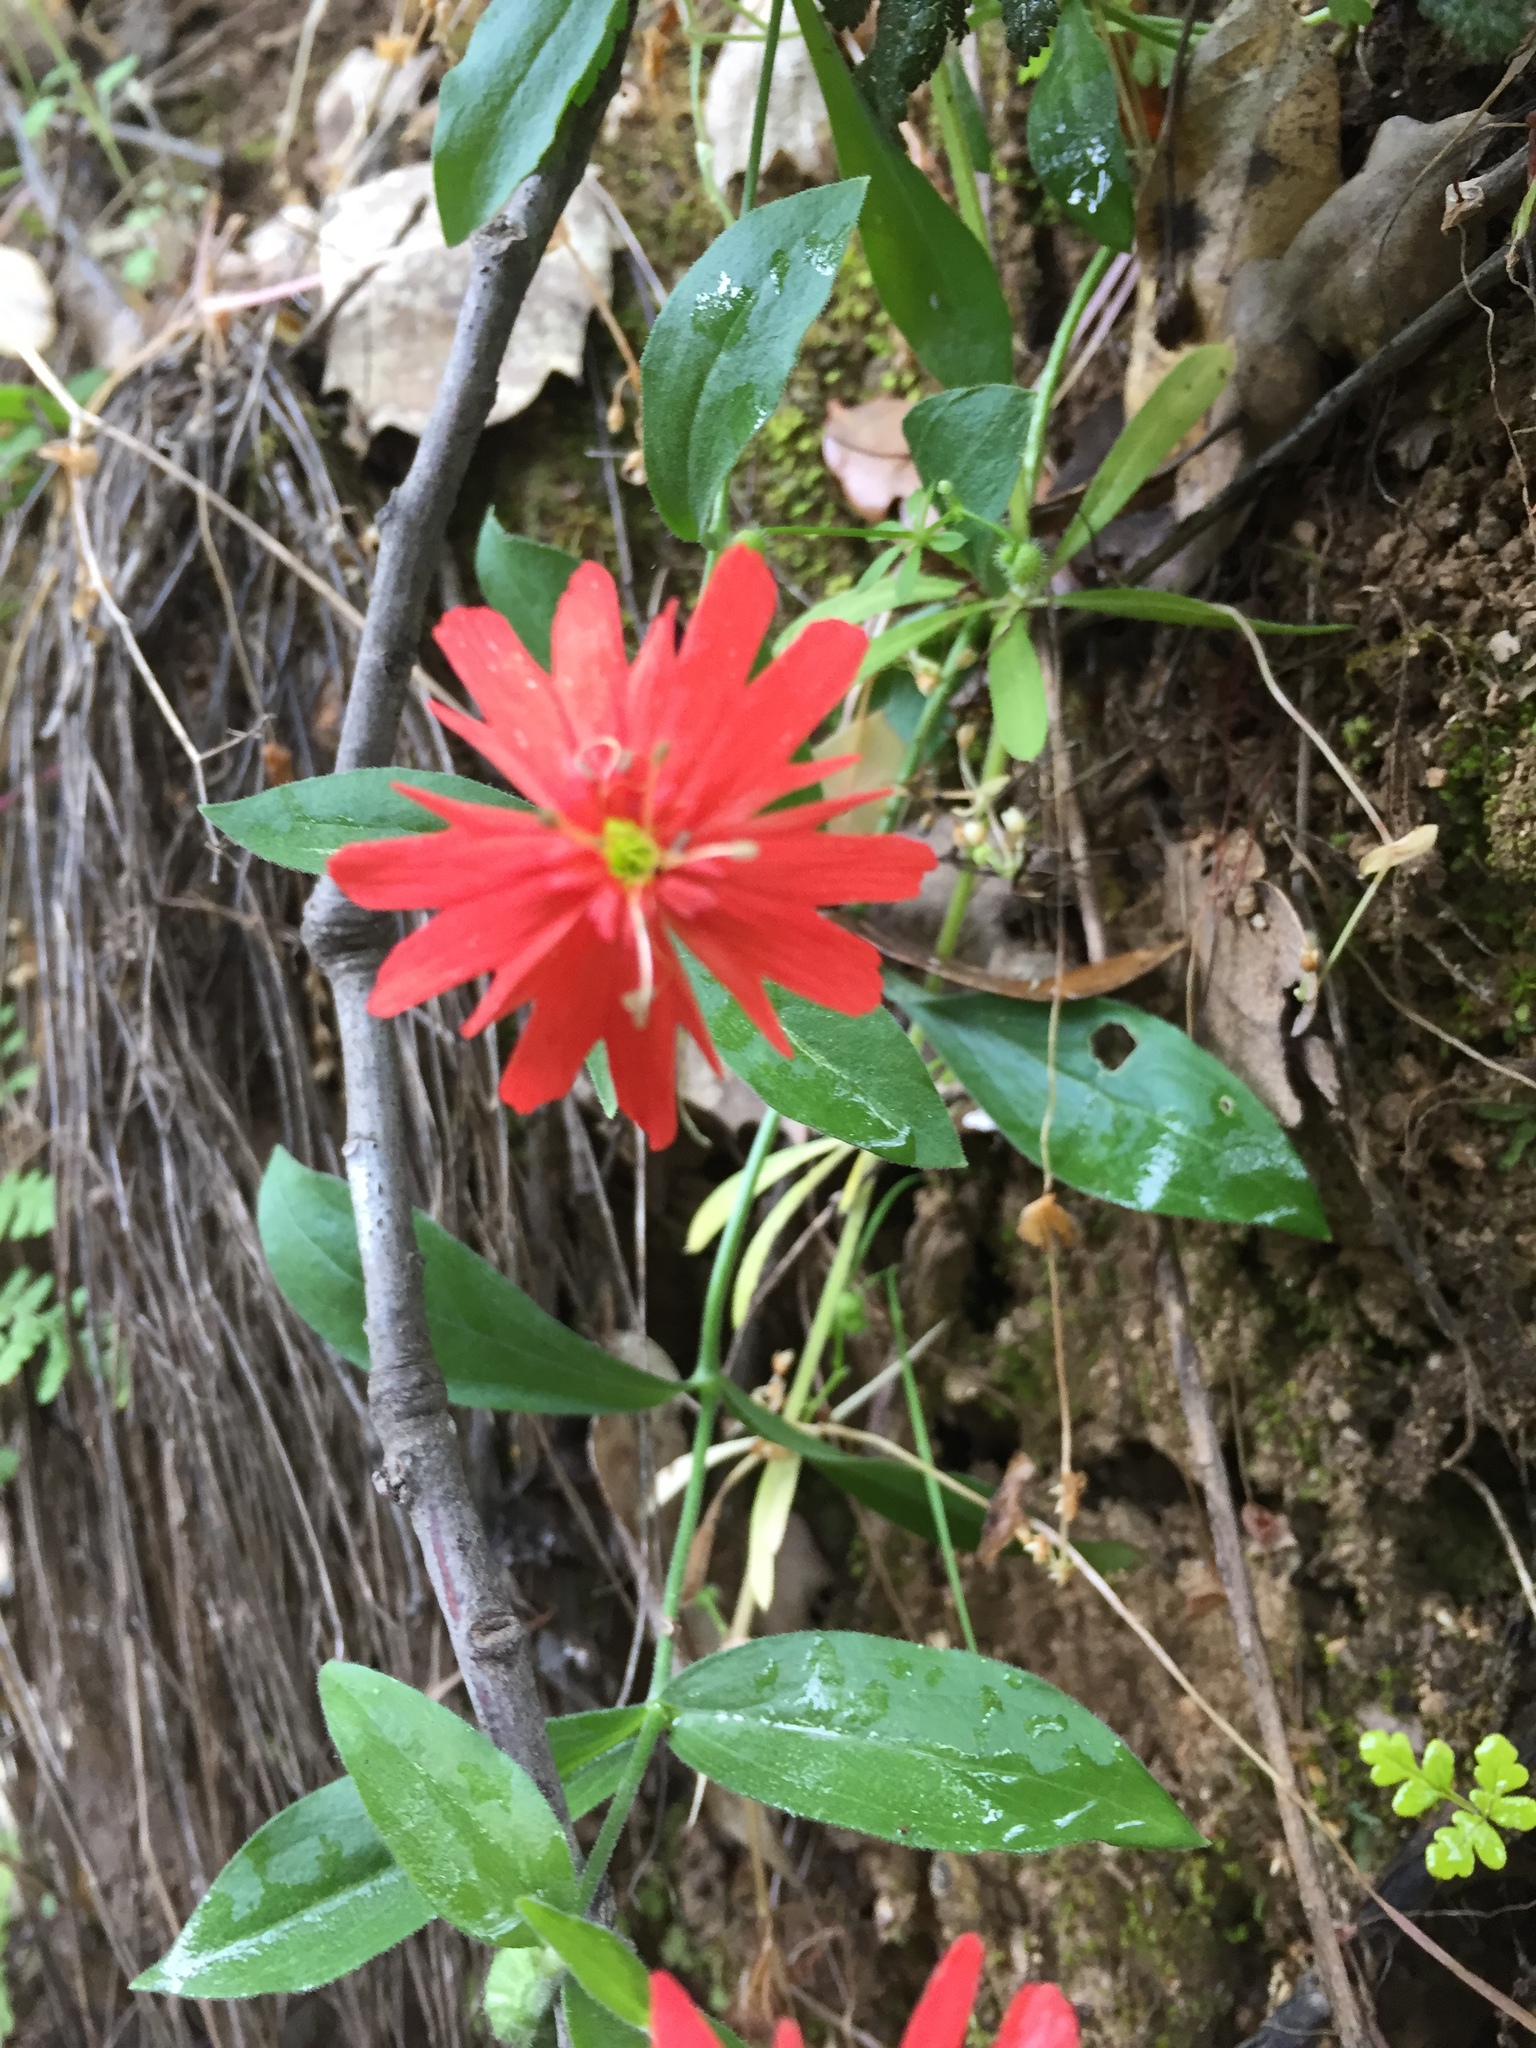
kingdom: Plantae
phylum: Tracheophyta
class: Magnoliopsida
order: Caryophyllales
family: Caryophyllaceae
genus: Silene
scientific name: Silene laciniata
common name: Indian-pink
